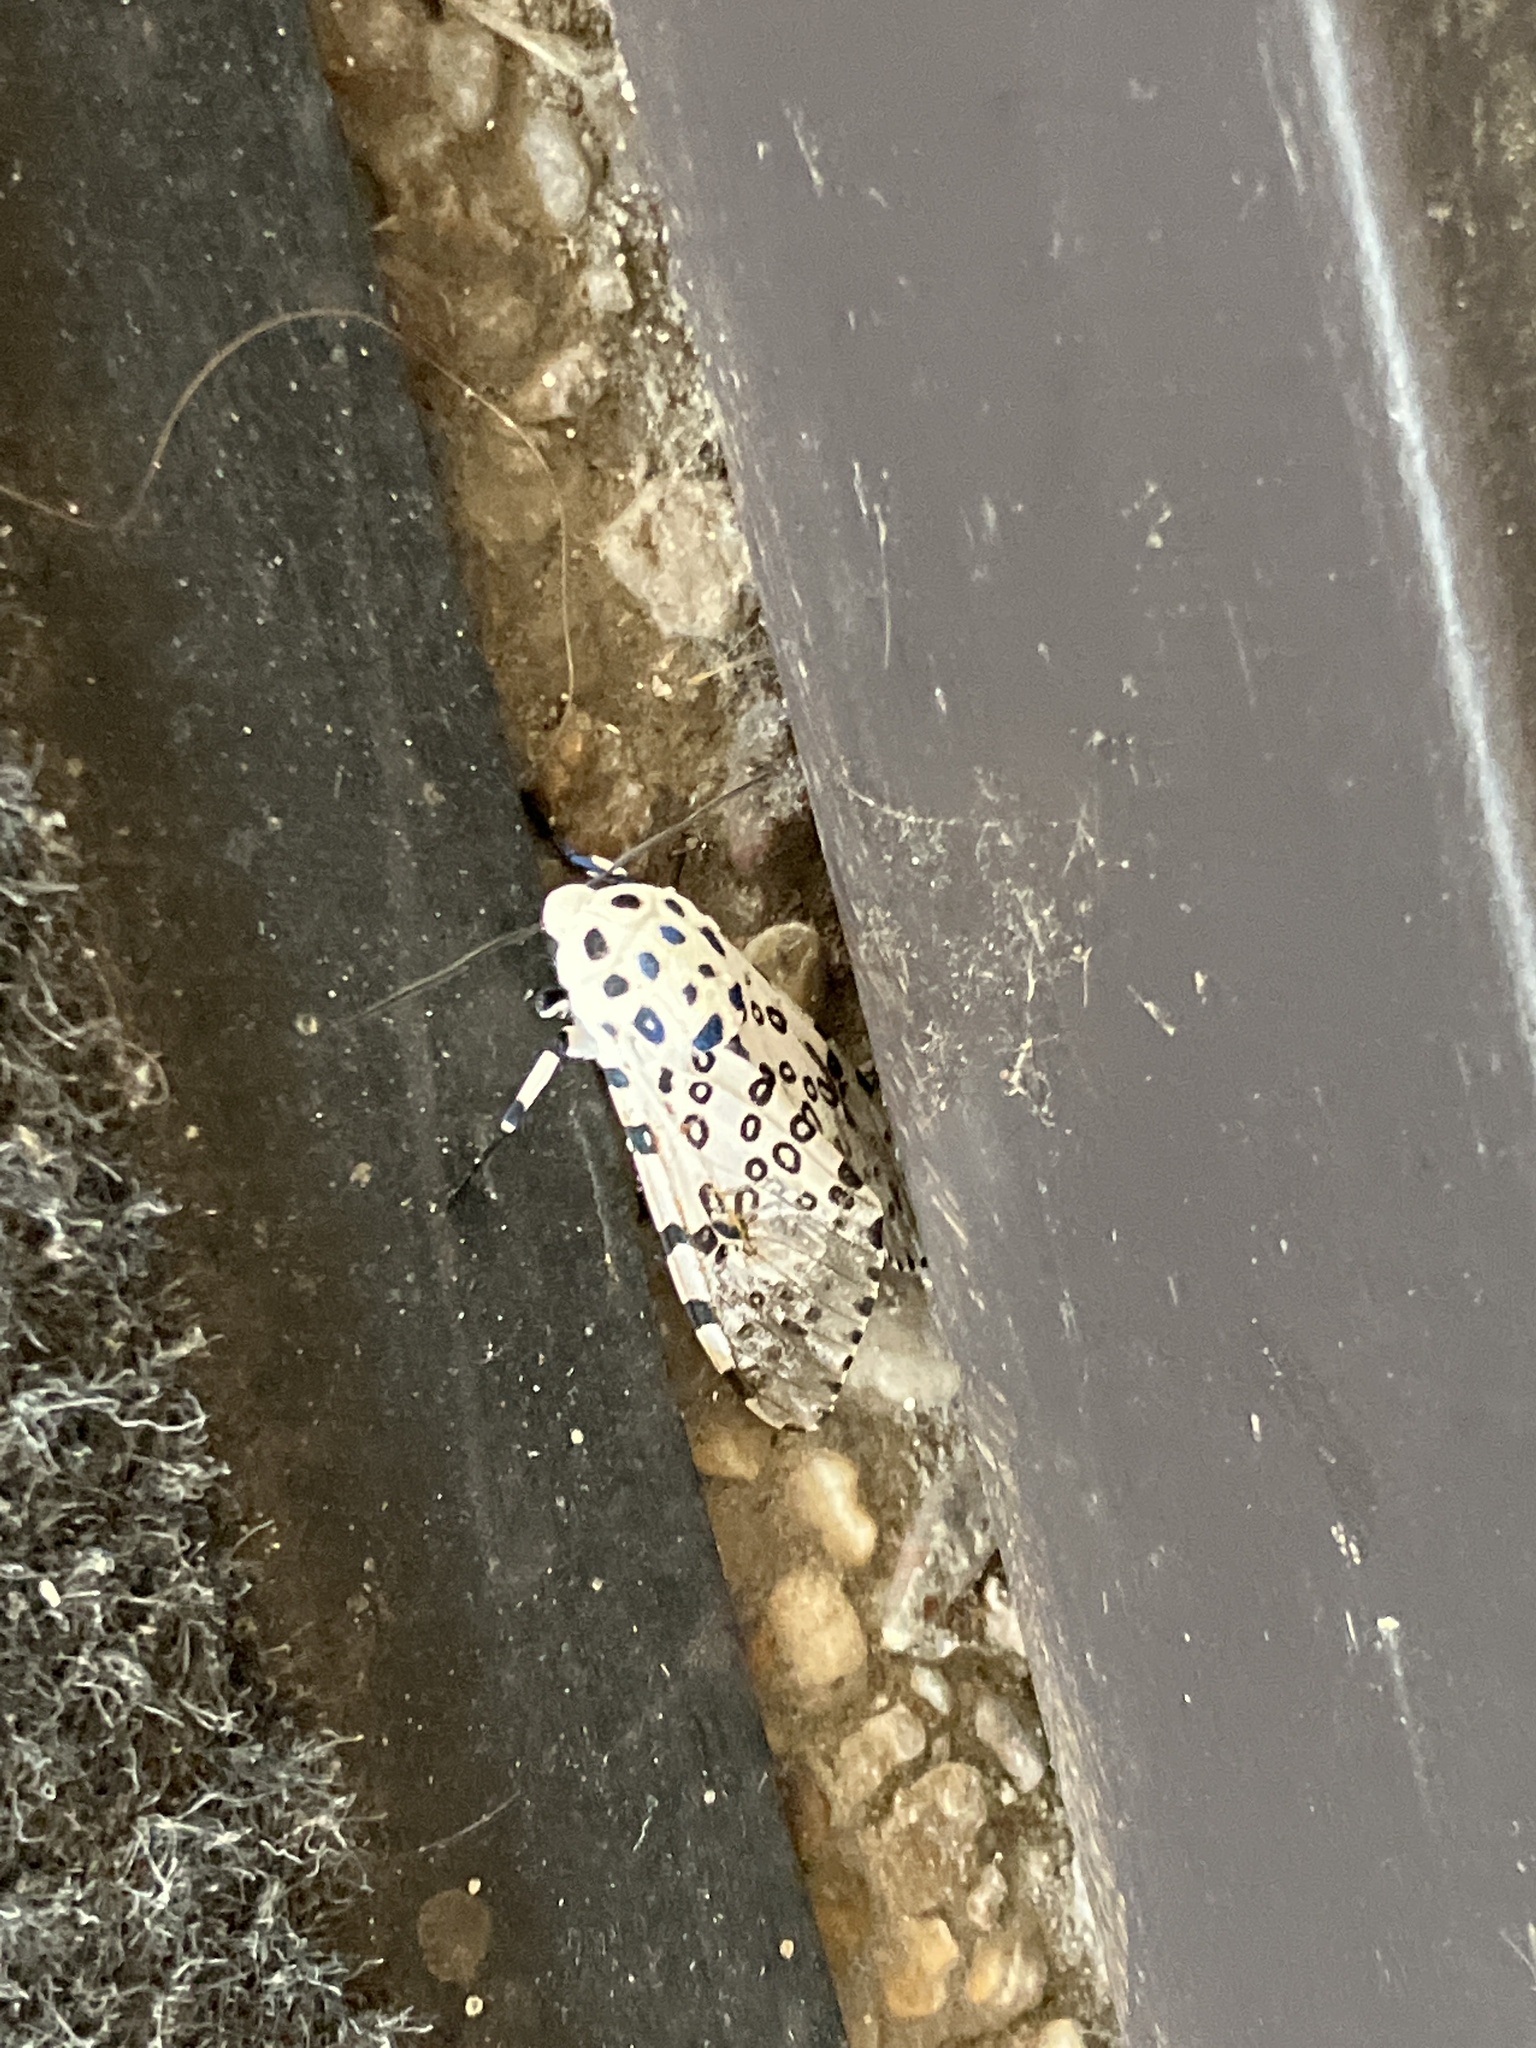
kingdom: Animalia
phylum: Arthropoda
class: Insecta
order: Lepidoptera
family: Erebidae
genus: Hypercompe
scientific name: Hypercompe scribonia
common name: Giant leopard moth
